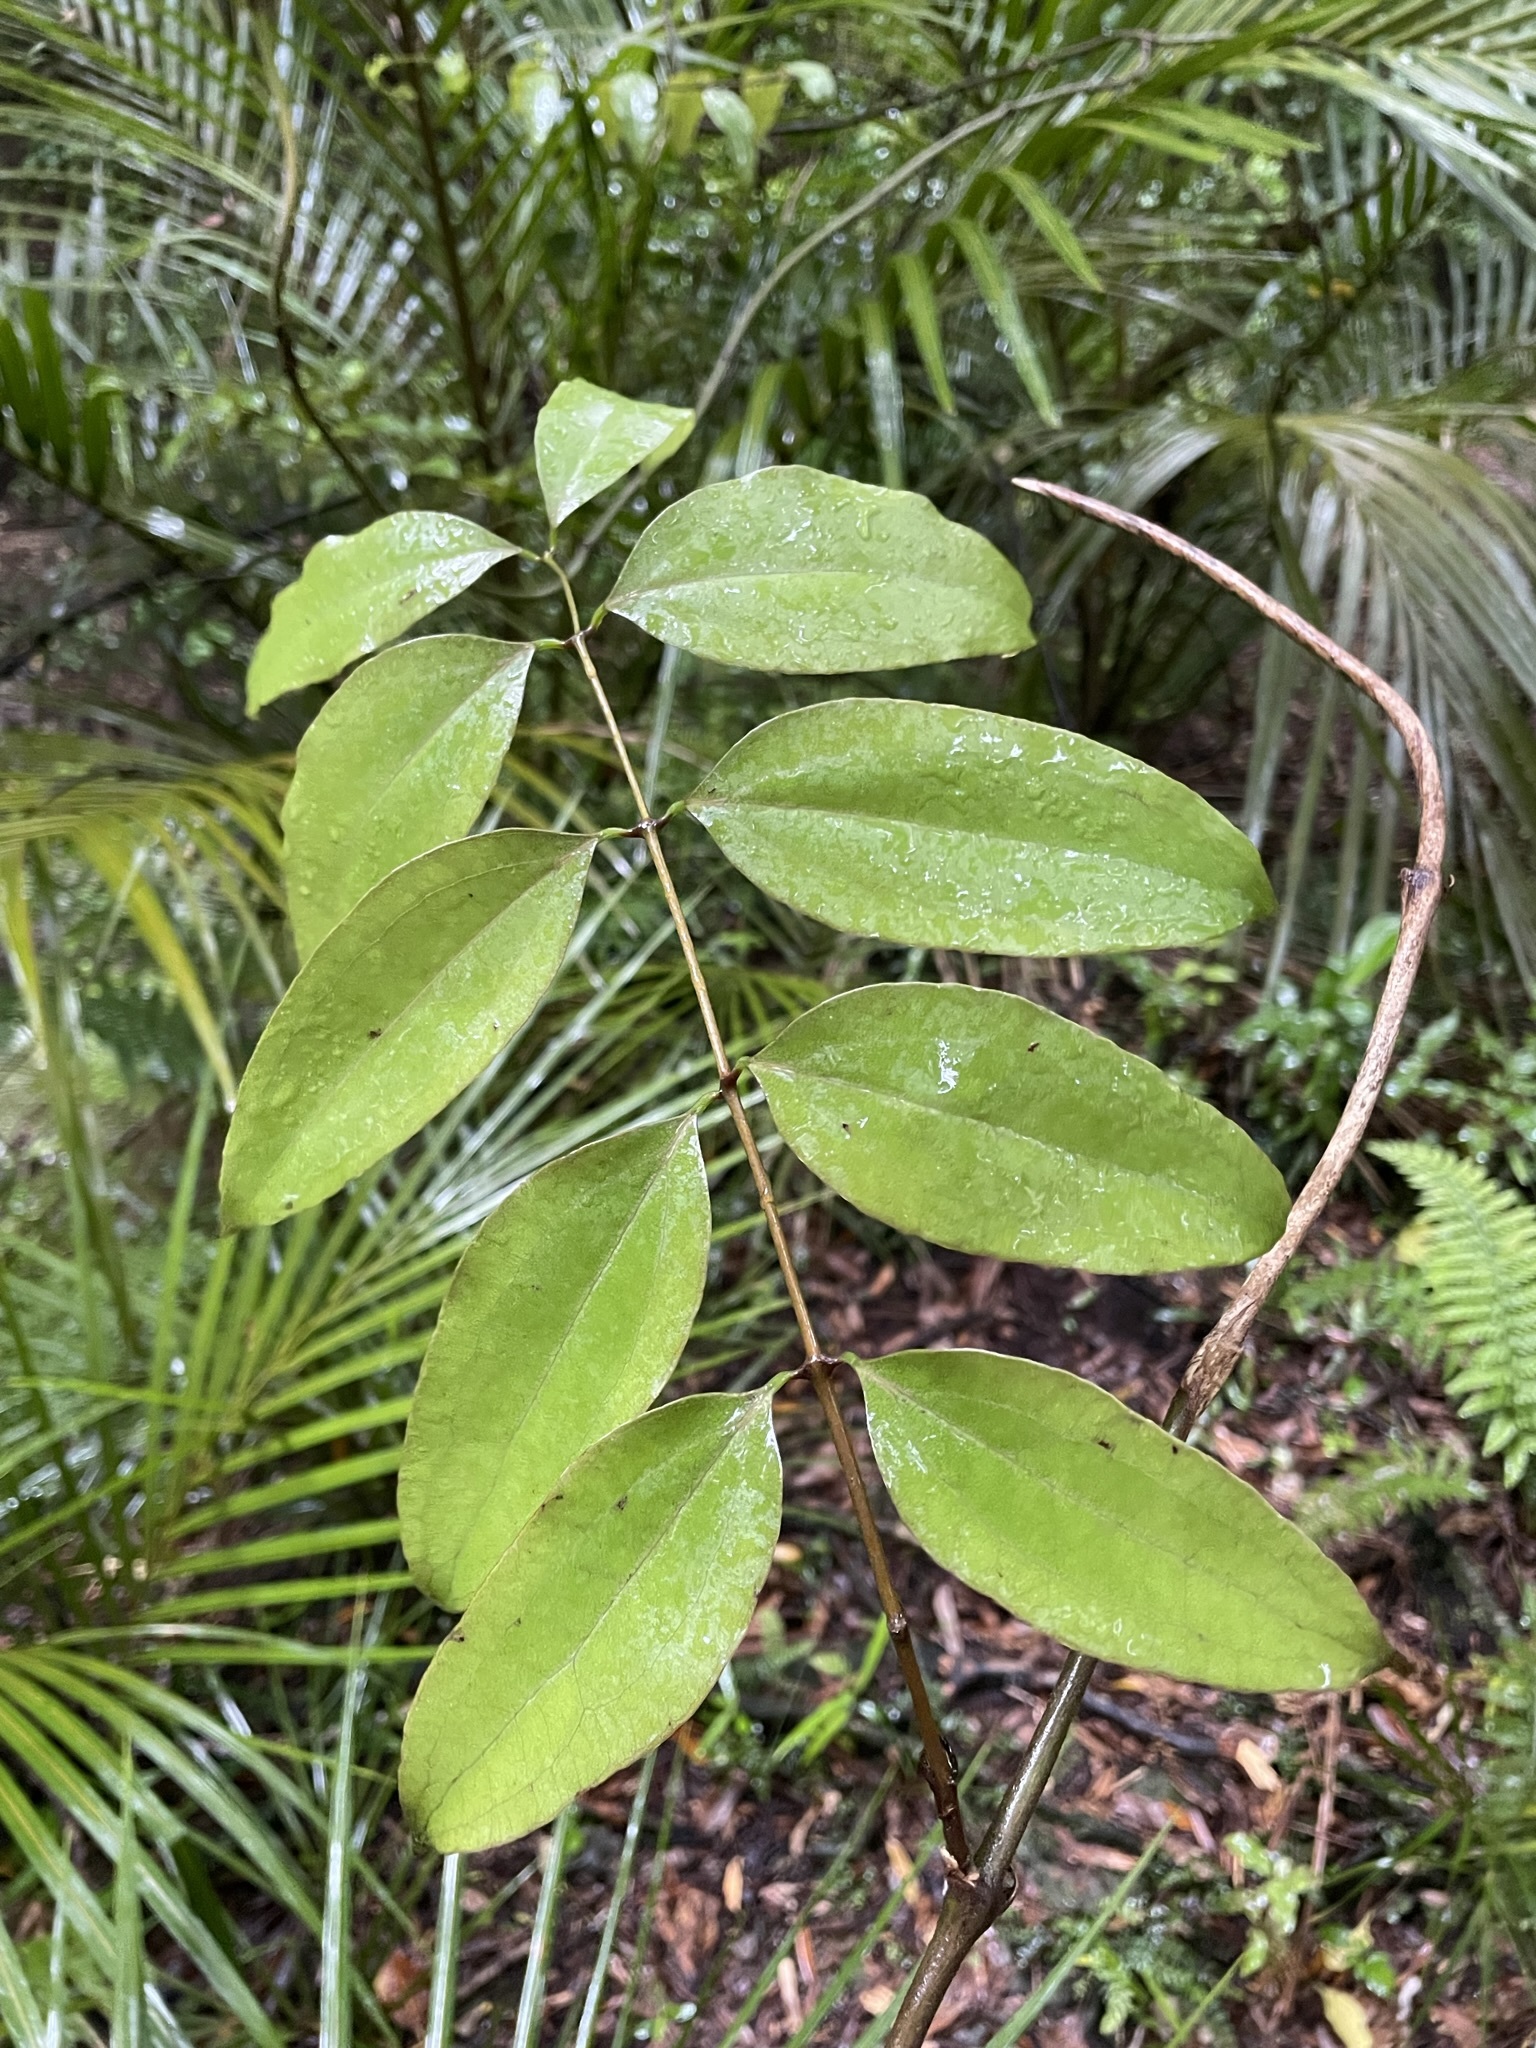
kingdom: Plantae
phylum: Tracheophyta
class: Liliopsida
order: Liliales
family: Ripogonaceae
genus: Ripogonum
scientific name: Ripogonum scandens
